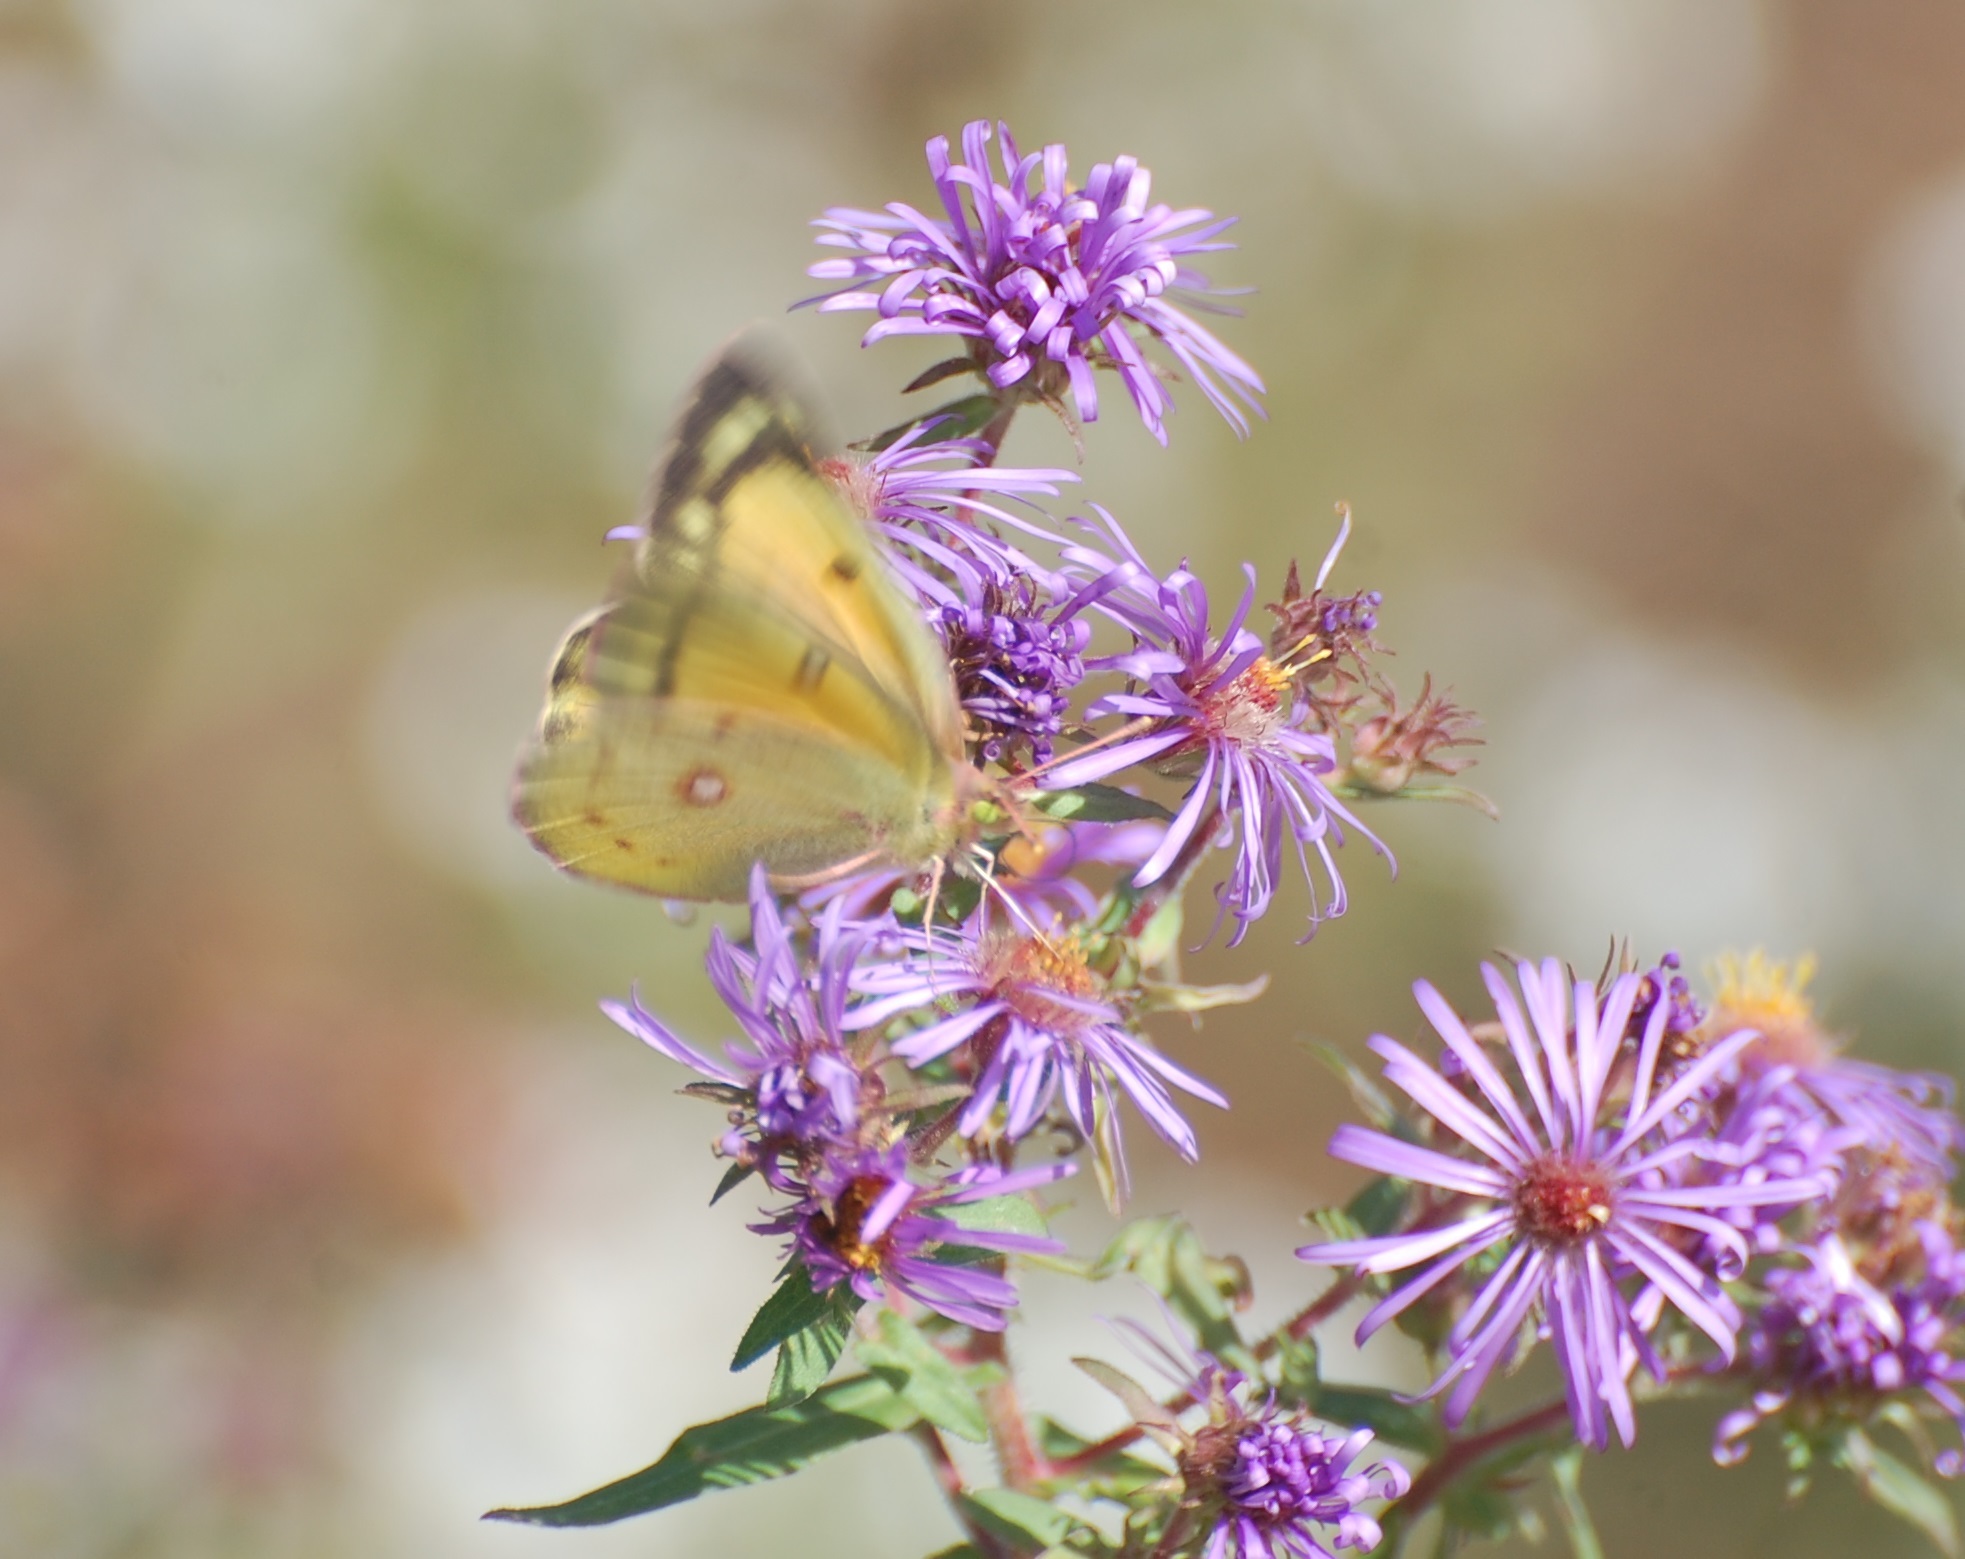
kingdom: Animalia
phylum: Arthropoda
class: Insecta
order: Lepidoptera
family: Pieridae
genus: Colias
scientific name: Colias eurytheme
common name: Alfalfa butterfly
